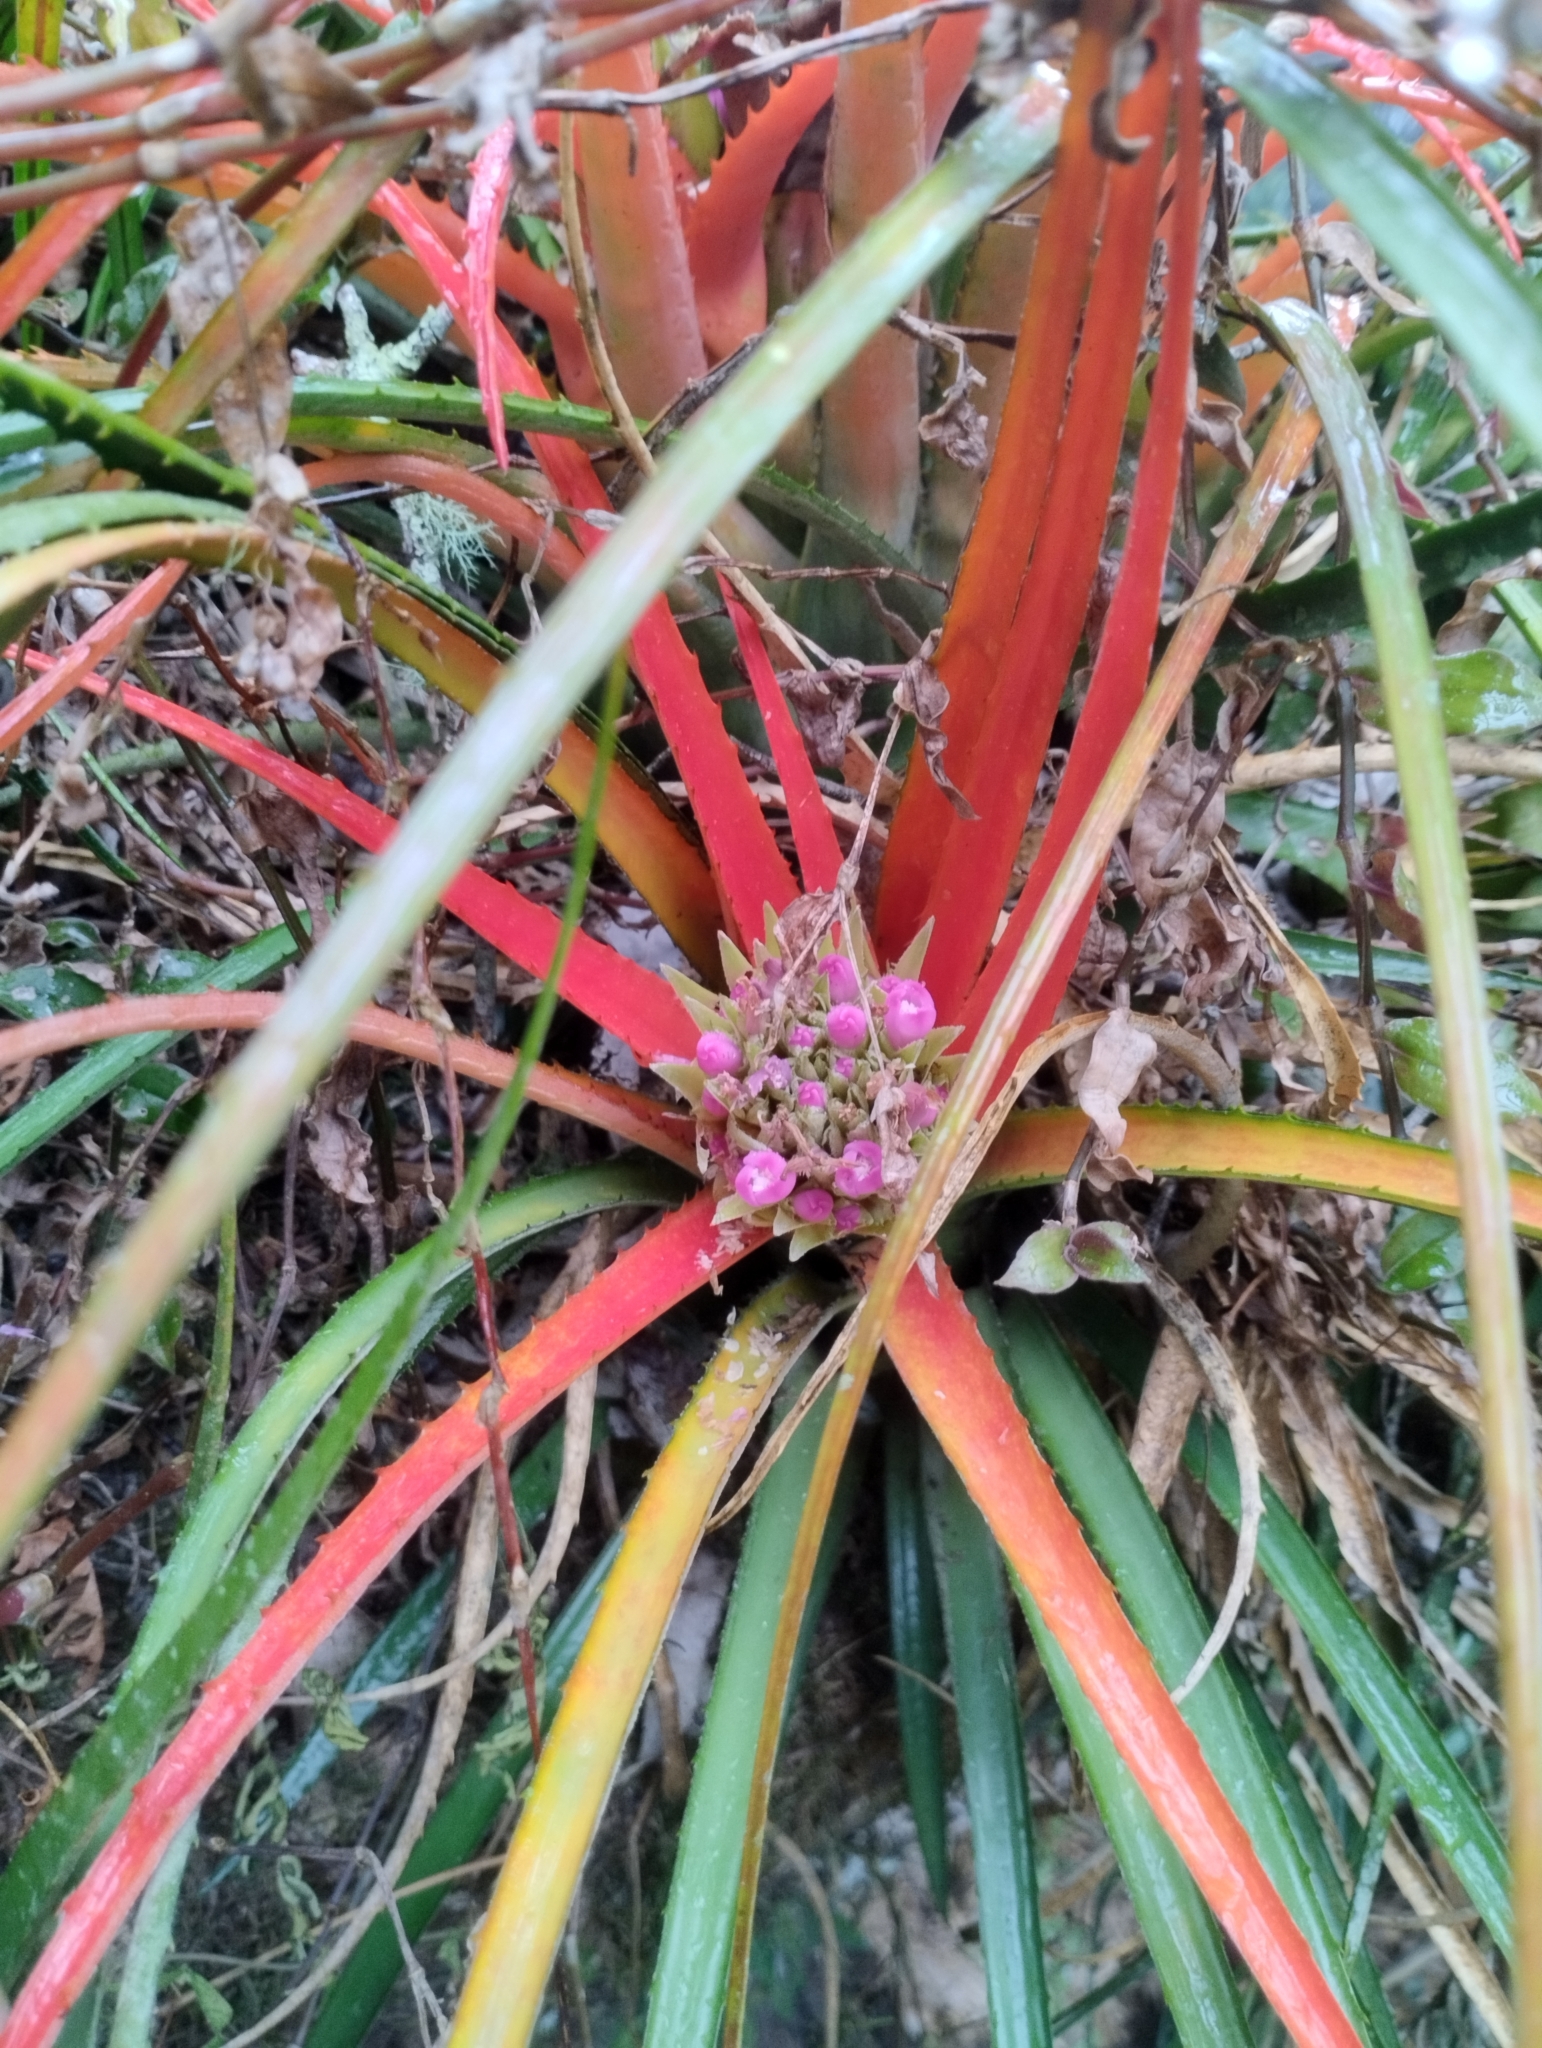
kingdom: Plantae
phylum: Tracheophyta
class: Liliopsida
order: Poales
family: Bromeliaceae
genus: Aechmea
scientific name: Aechmea recurvata
